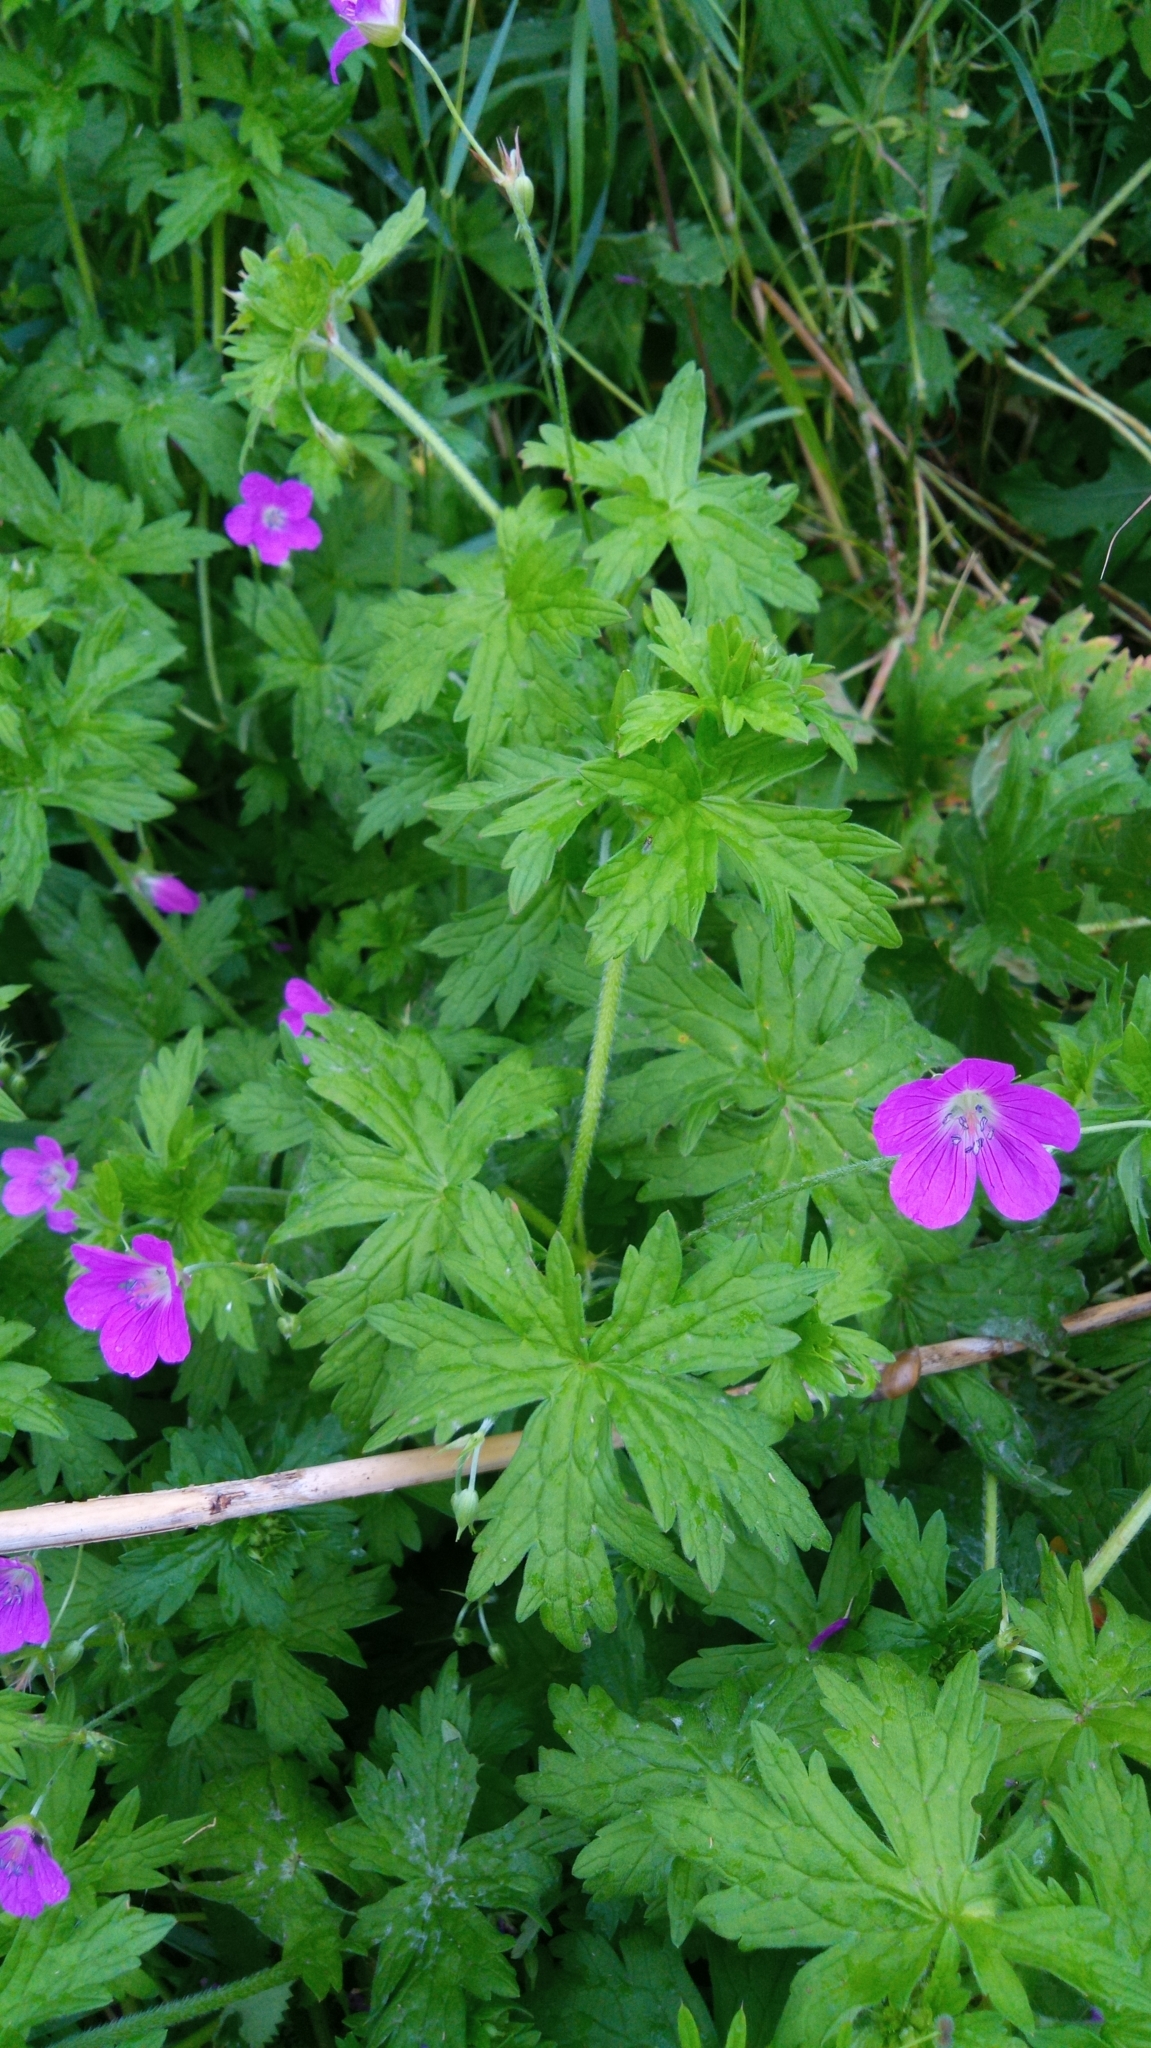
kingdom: Plantae
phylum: Tracheophyta
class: Magnoliopsida
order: Geraniales
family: Geraniaceae
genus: Geranium
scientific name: Geranium palustre
